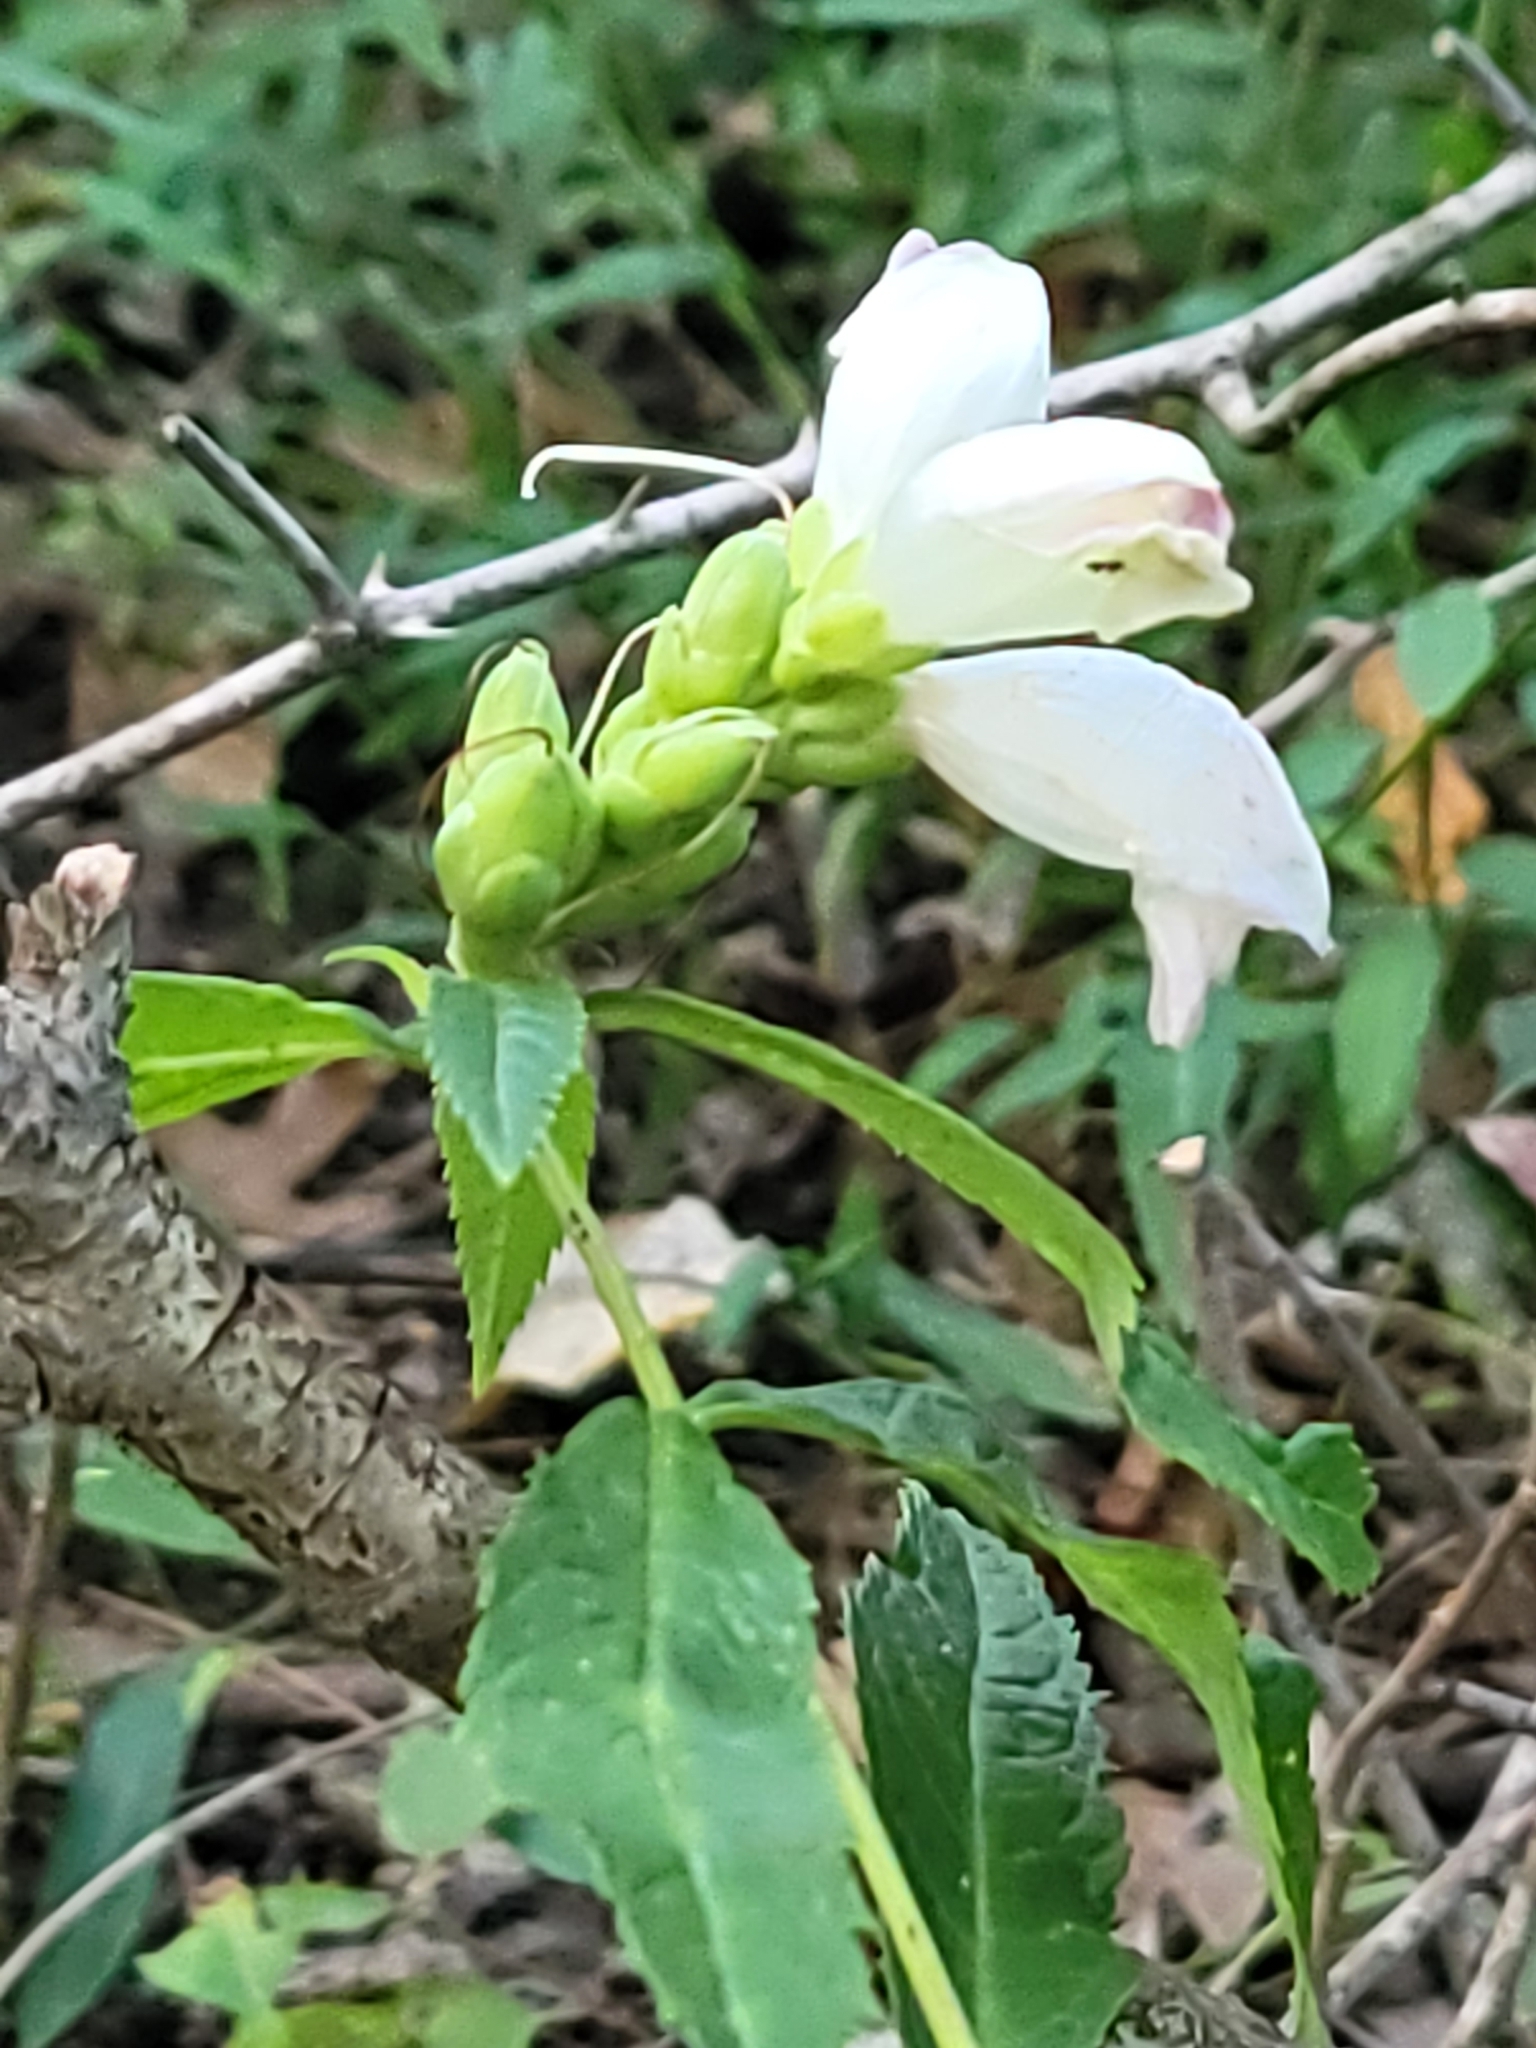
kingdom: Plantae
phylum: Tracheophyta
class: Magnoliopsida
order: Lamiales
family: Plantaginaceae
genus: Chelone
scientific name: Chelone glabra
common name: Snakehead
